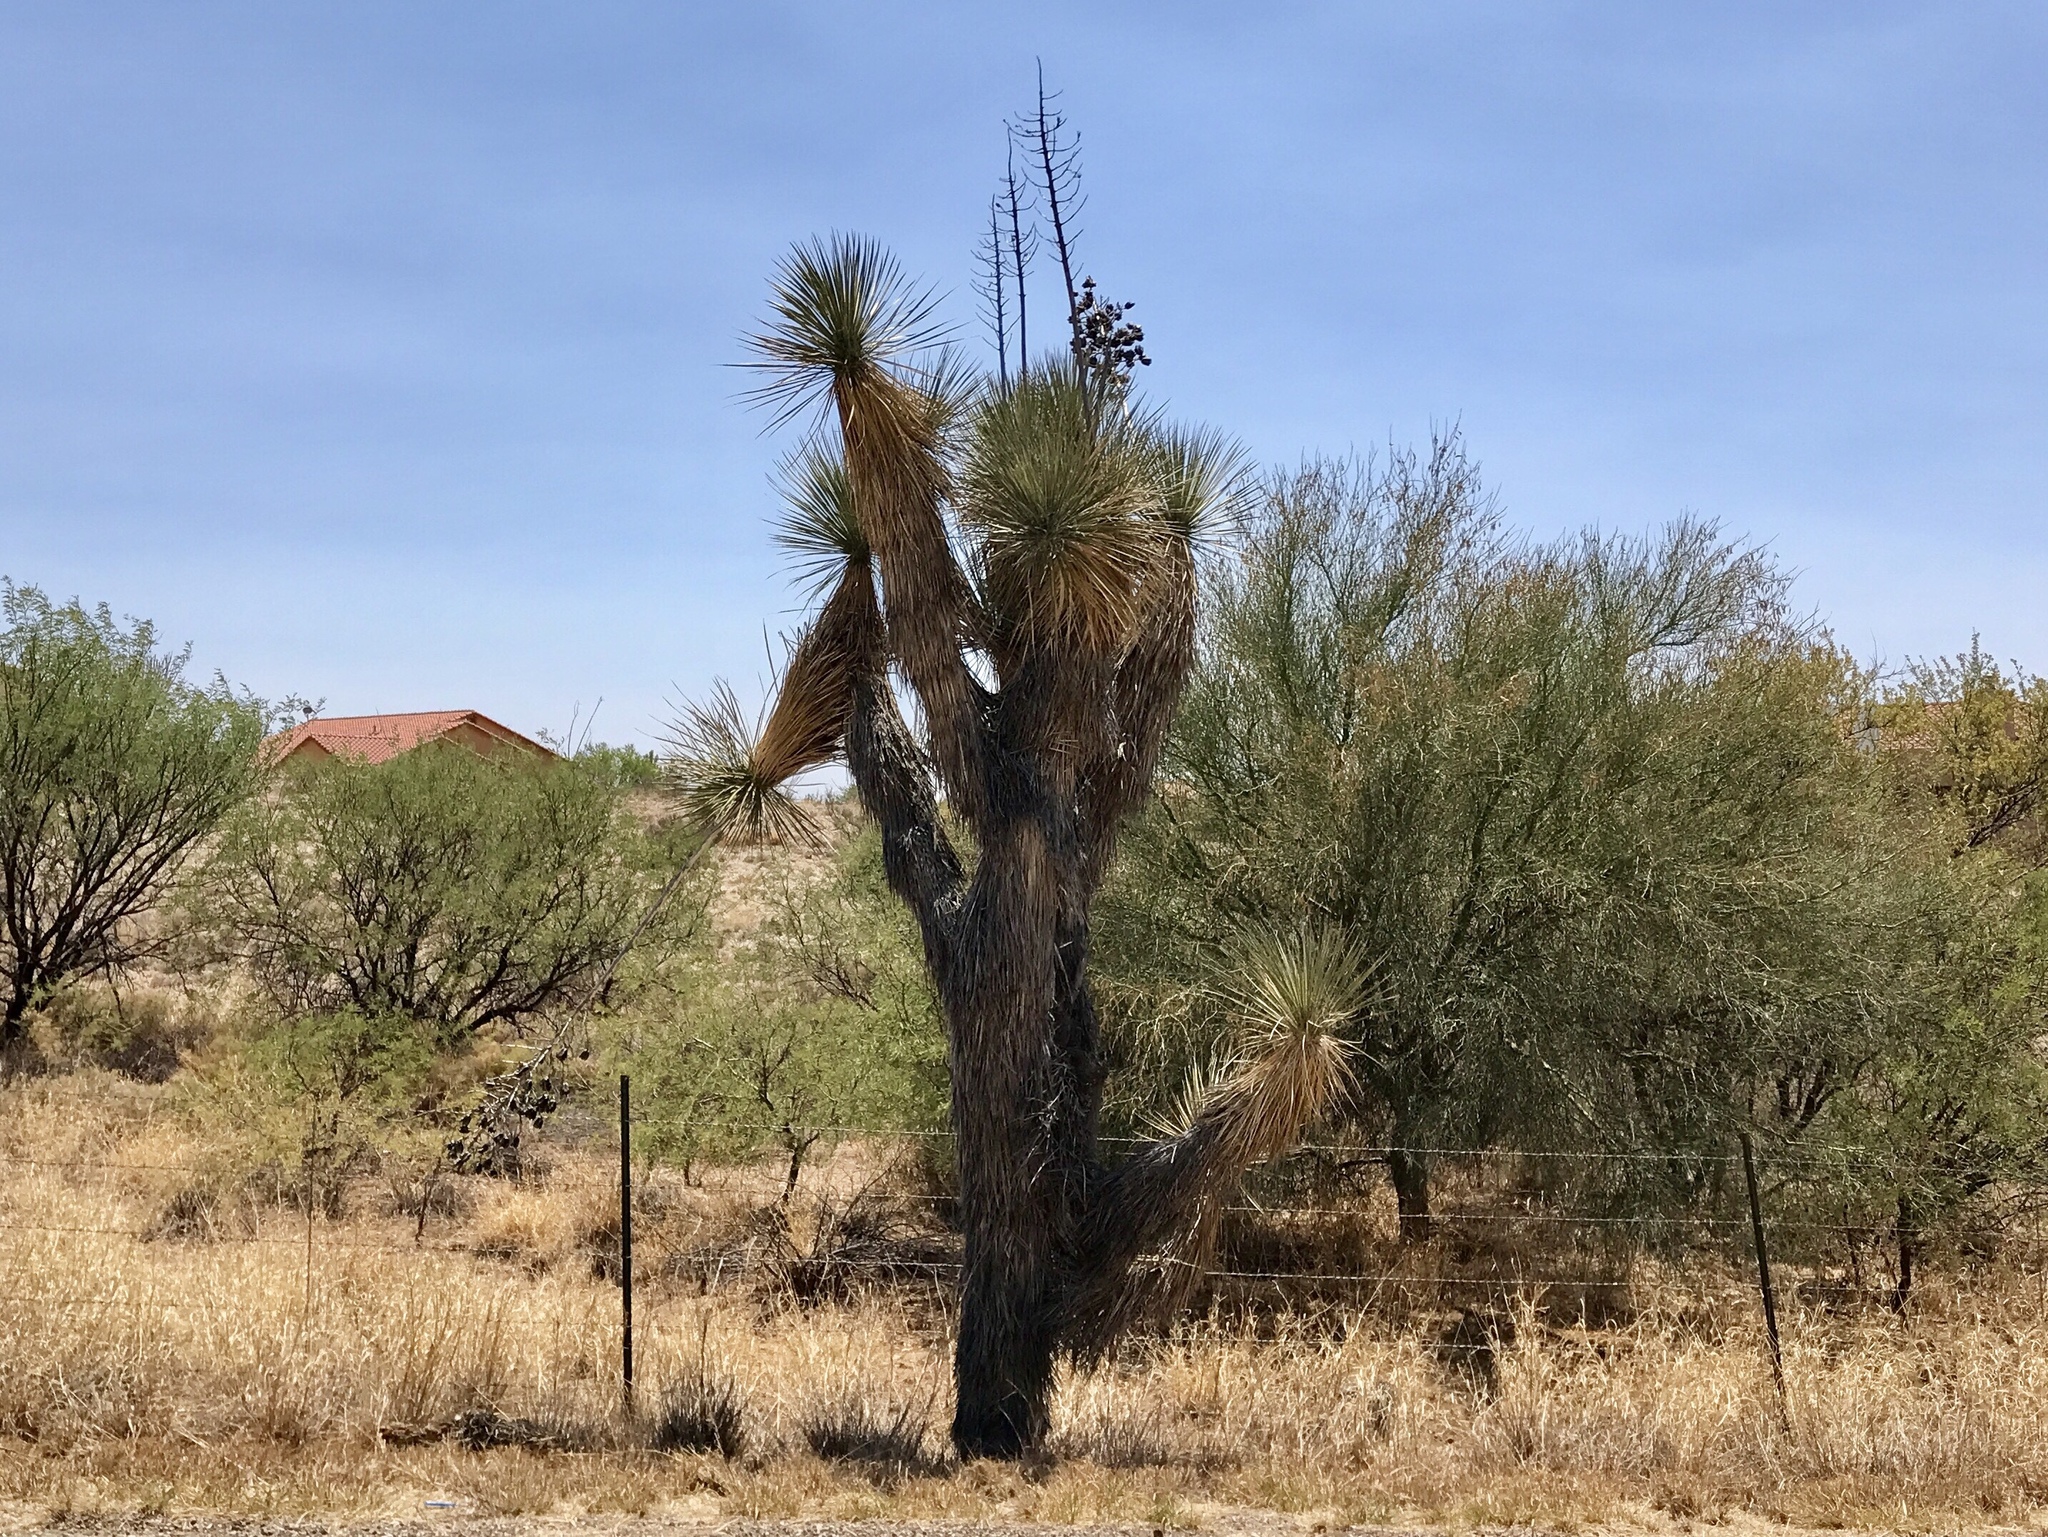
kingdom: Plantae
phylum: Tracheophyta
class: Liliopsida
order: Asparagales
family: Asparagaceae
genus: Yucca
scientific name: Yucca elata
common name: Palmella
